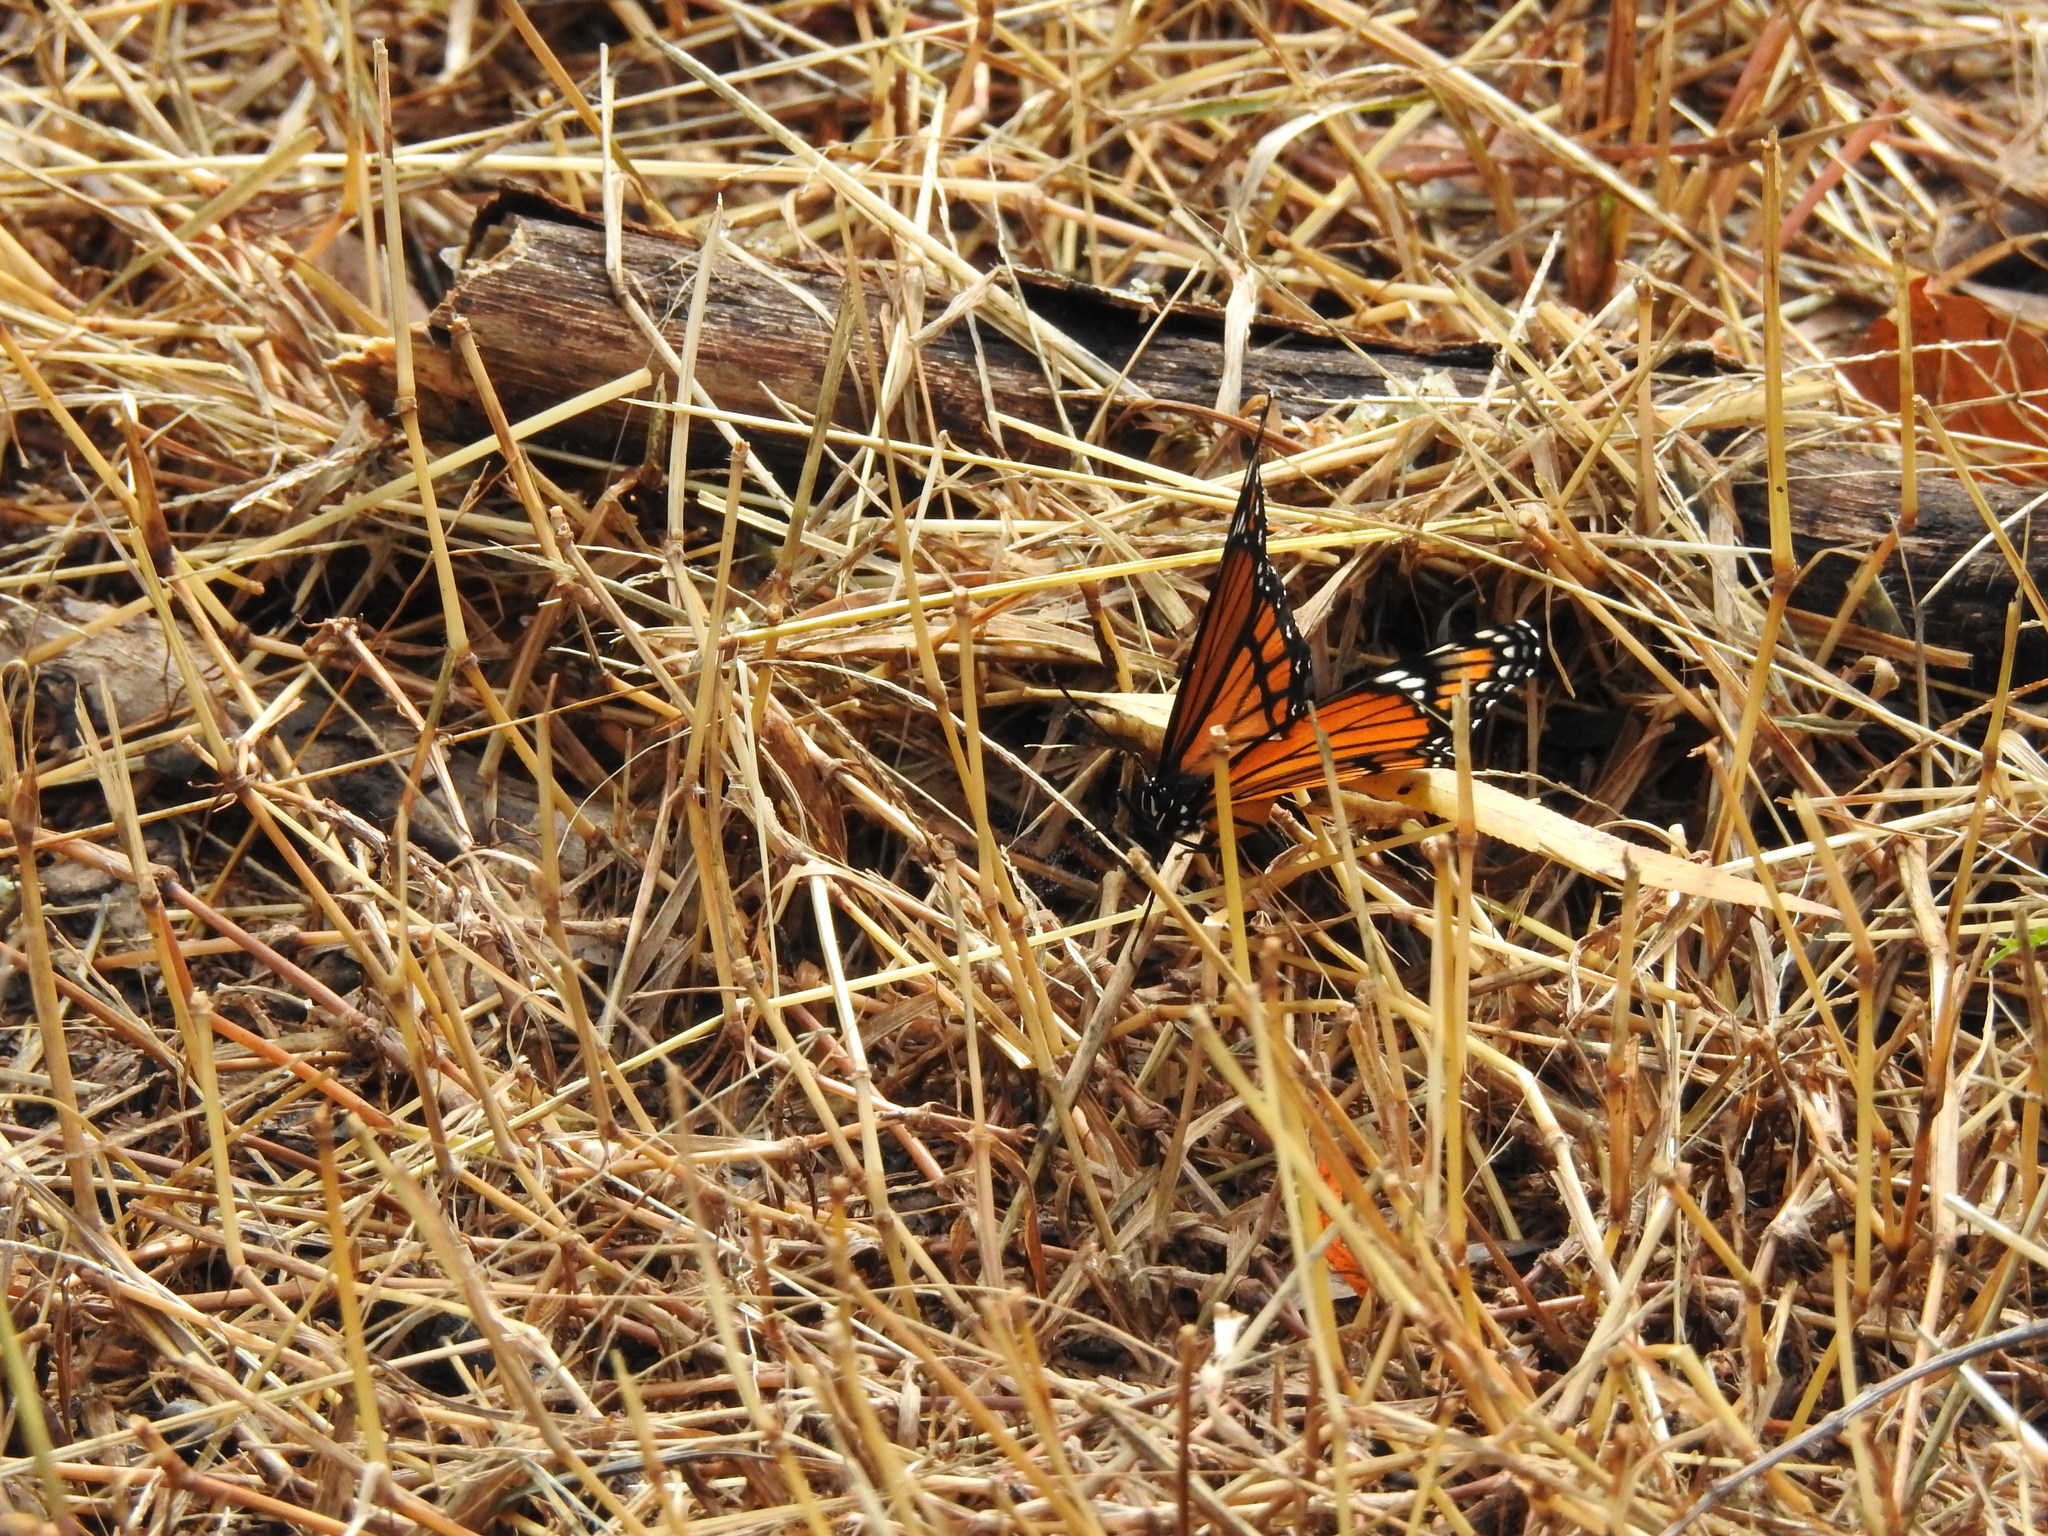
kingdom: Animalia
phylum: Arthropoda
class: Insecta
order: Lepidoptera
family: Nymphalidae
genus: Limenitis
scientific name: Limenitis archippus
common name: Viceroy
